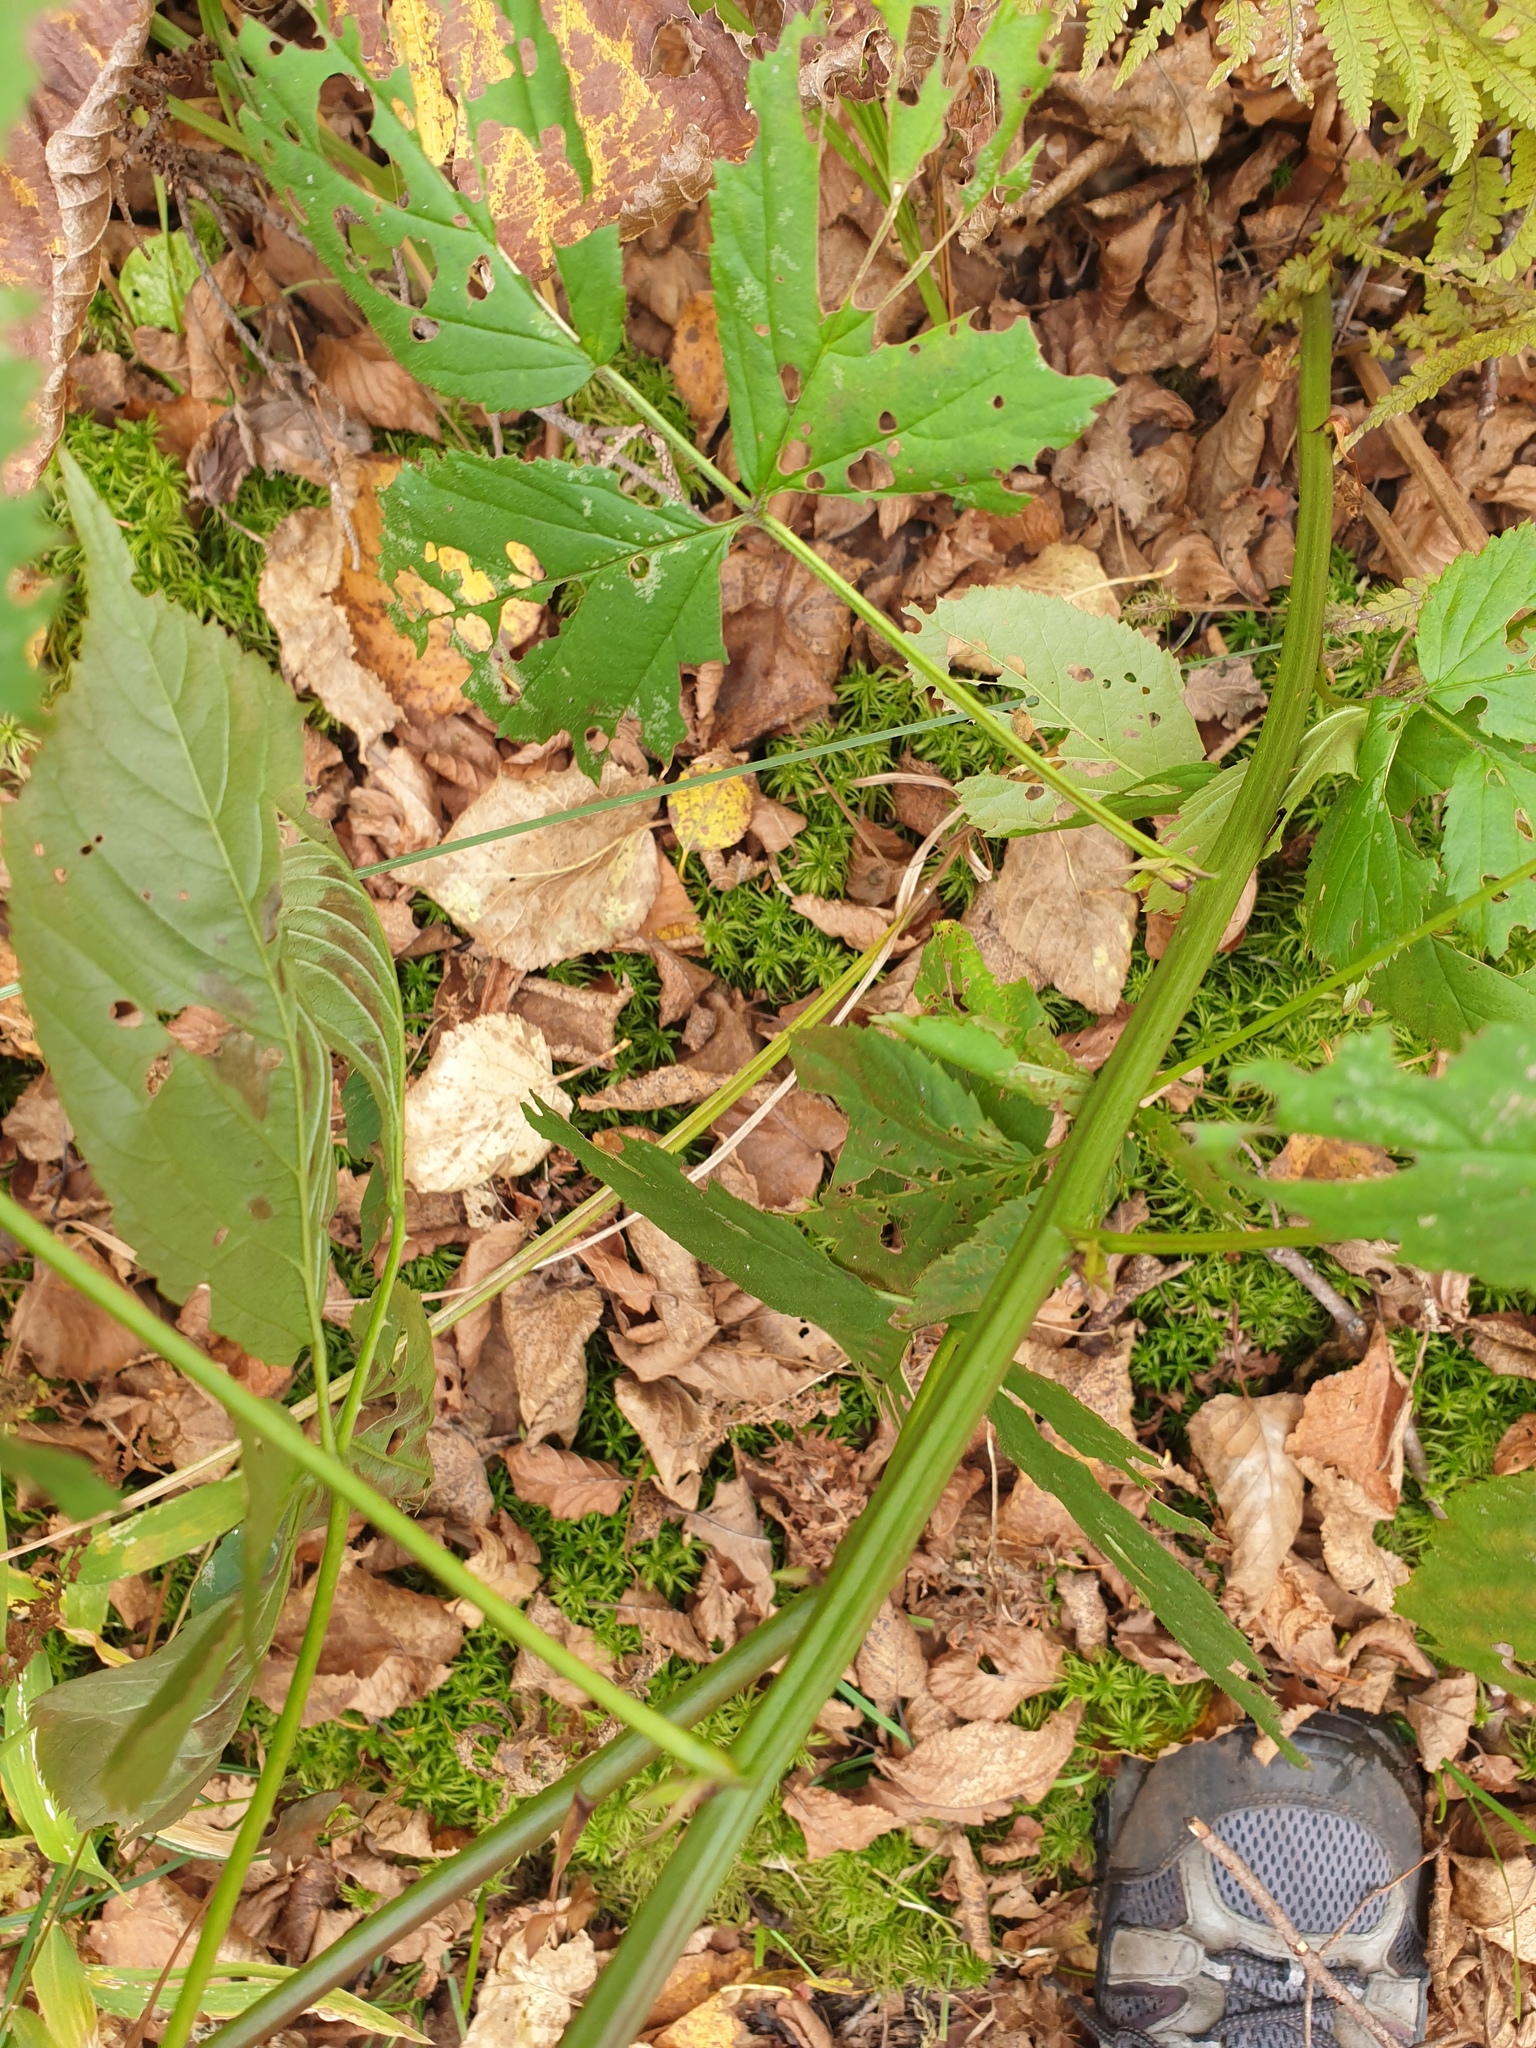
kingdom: Plantae
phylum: Tracheophyta
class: Magnoliopsida
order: Rosales
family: Rosaceae
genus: Rubus
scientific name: Rubus canadensis
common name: Smooth blackberry
